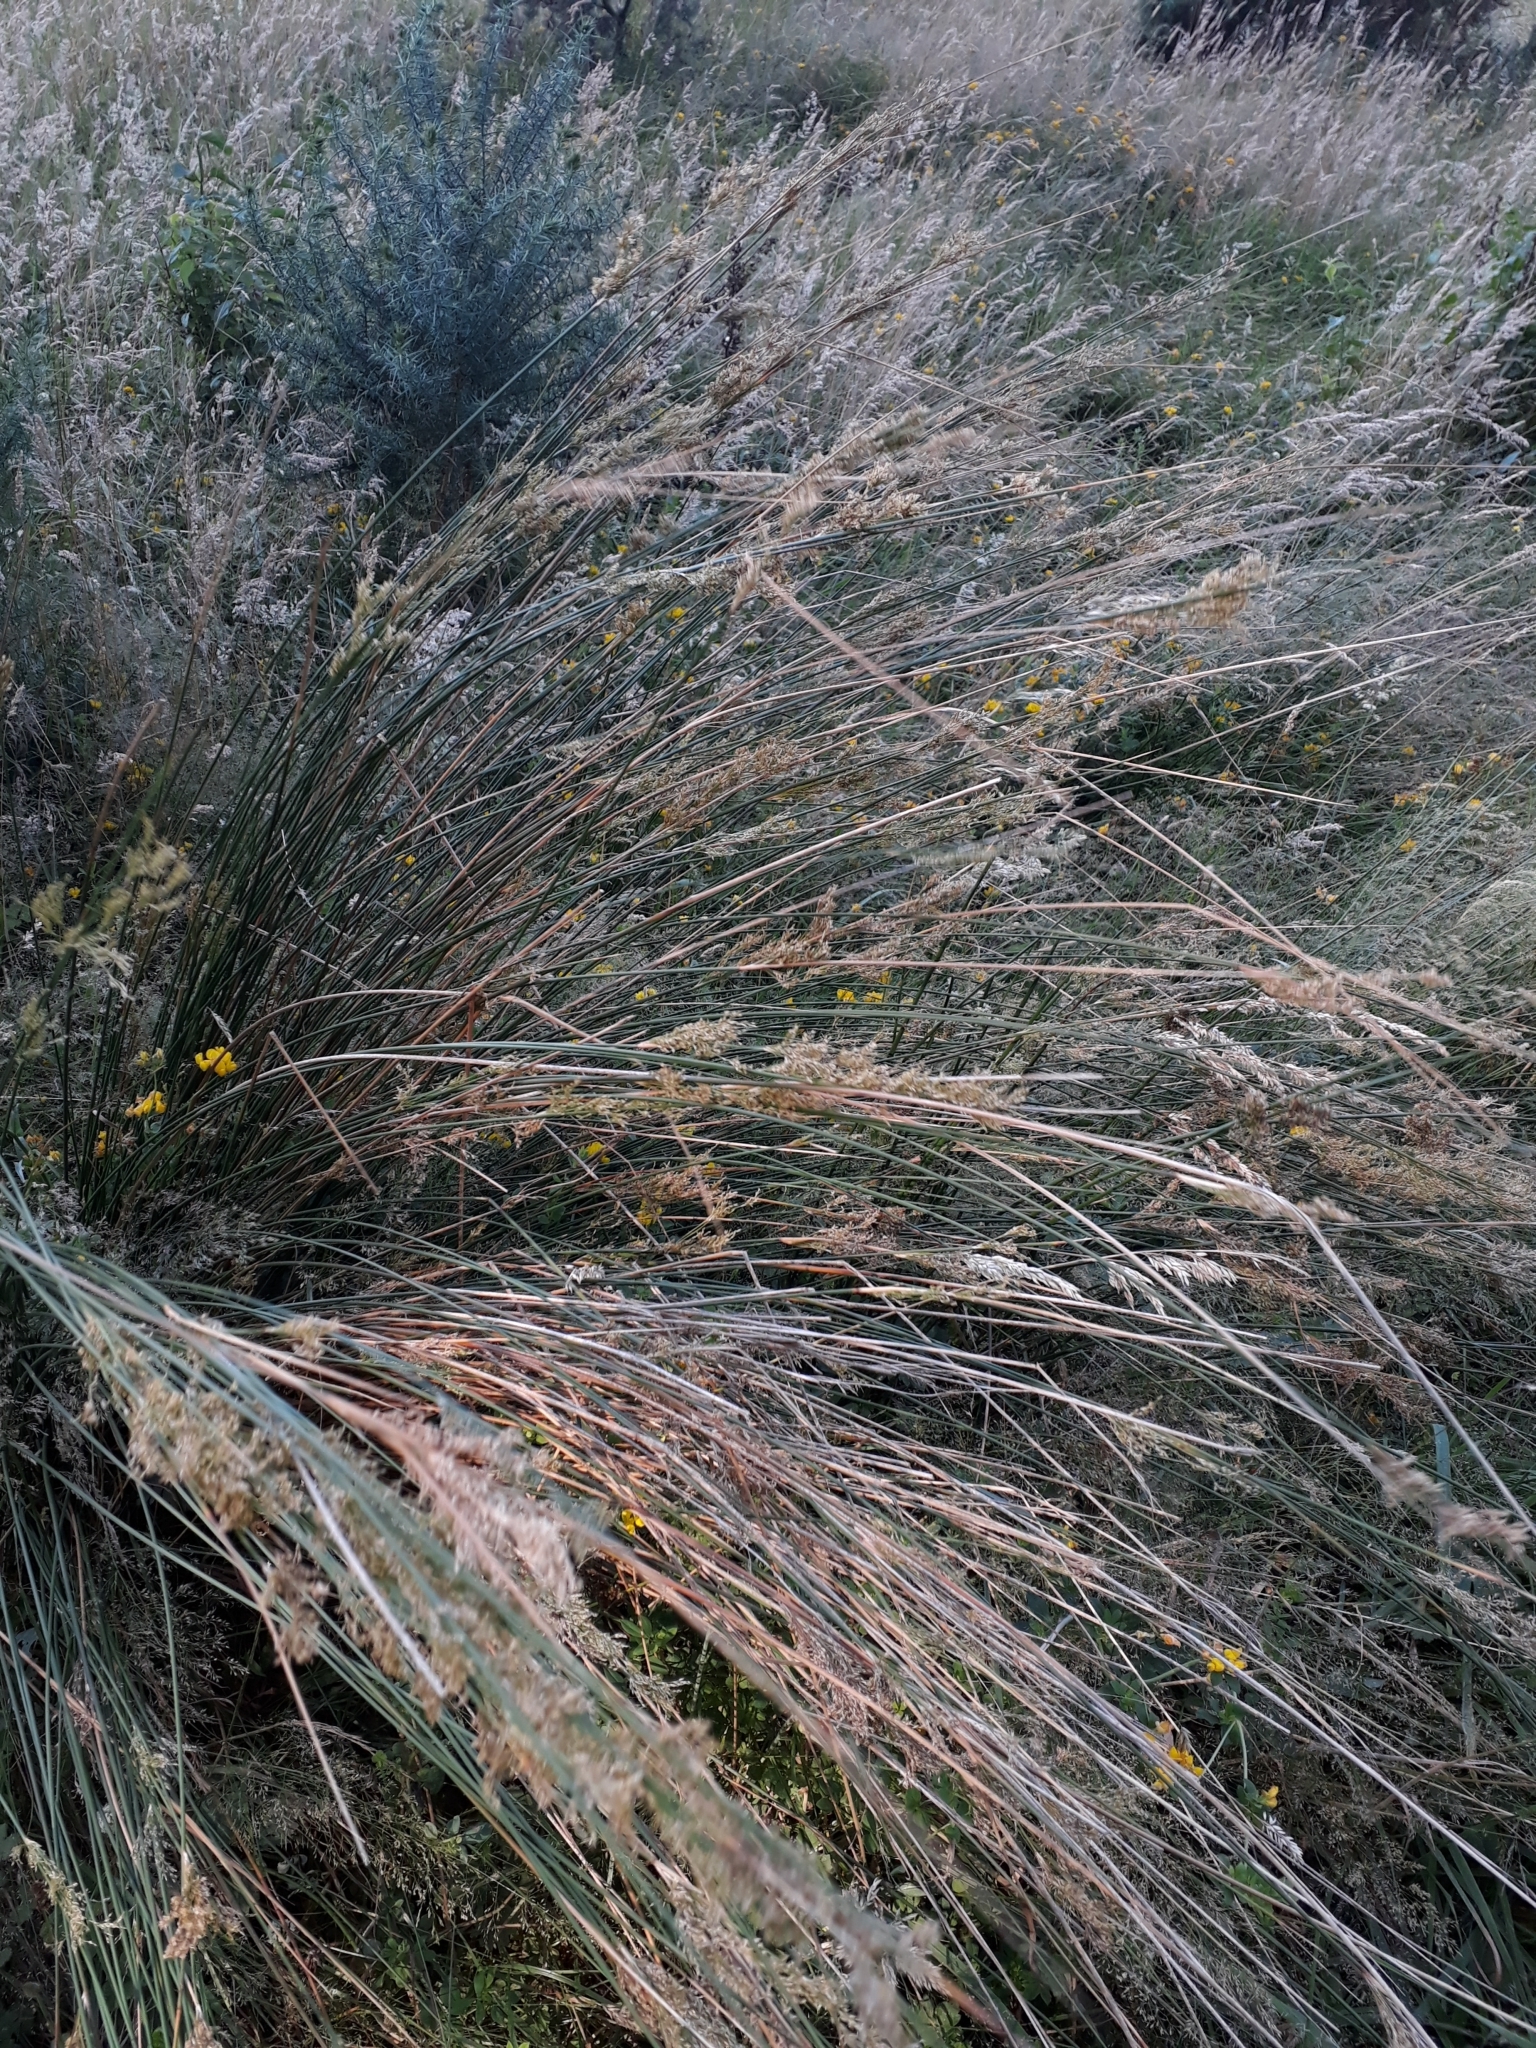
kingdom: Plantae
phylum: Tracheophyta
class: Liliopsida
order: Poales
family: Juncaceae
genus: Juncus
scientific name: Juncus sarophorus
